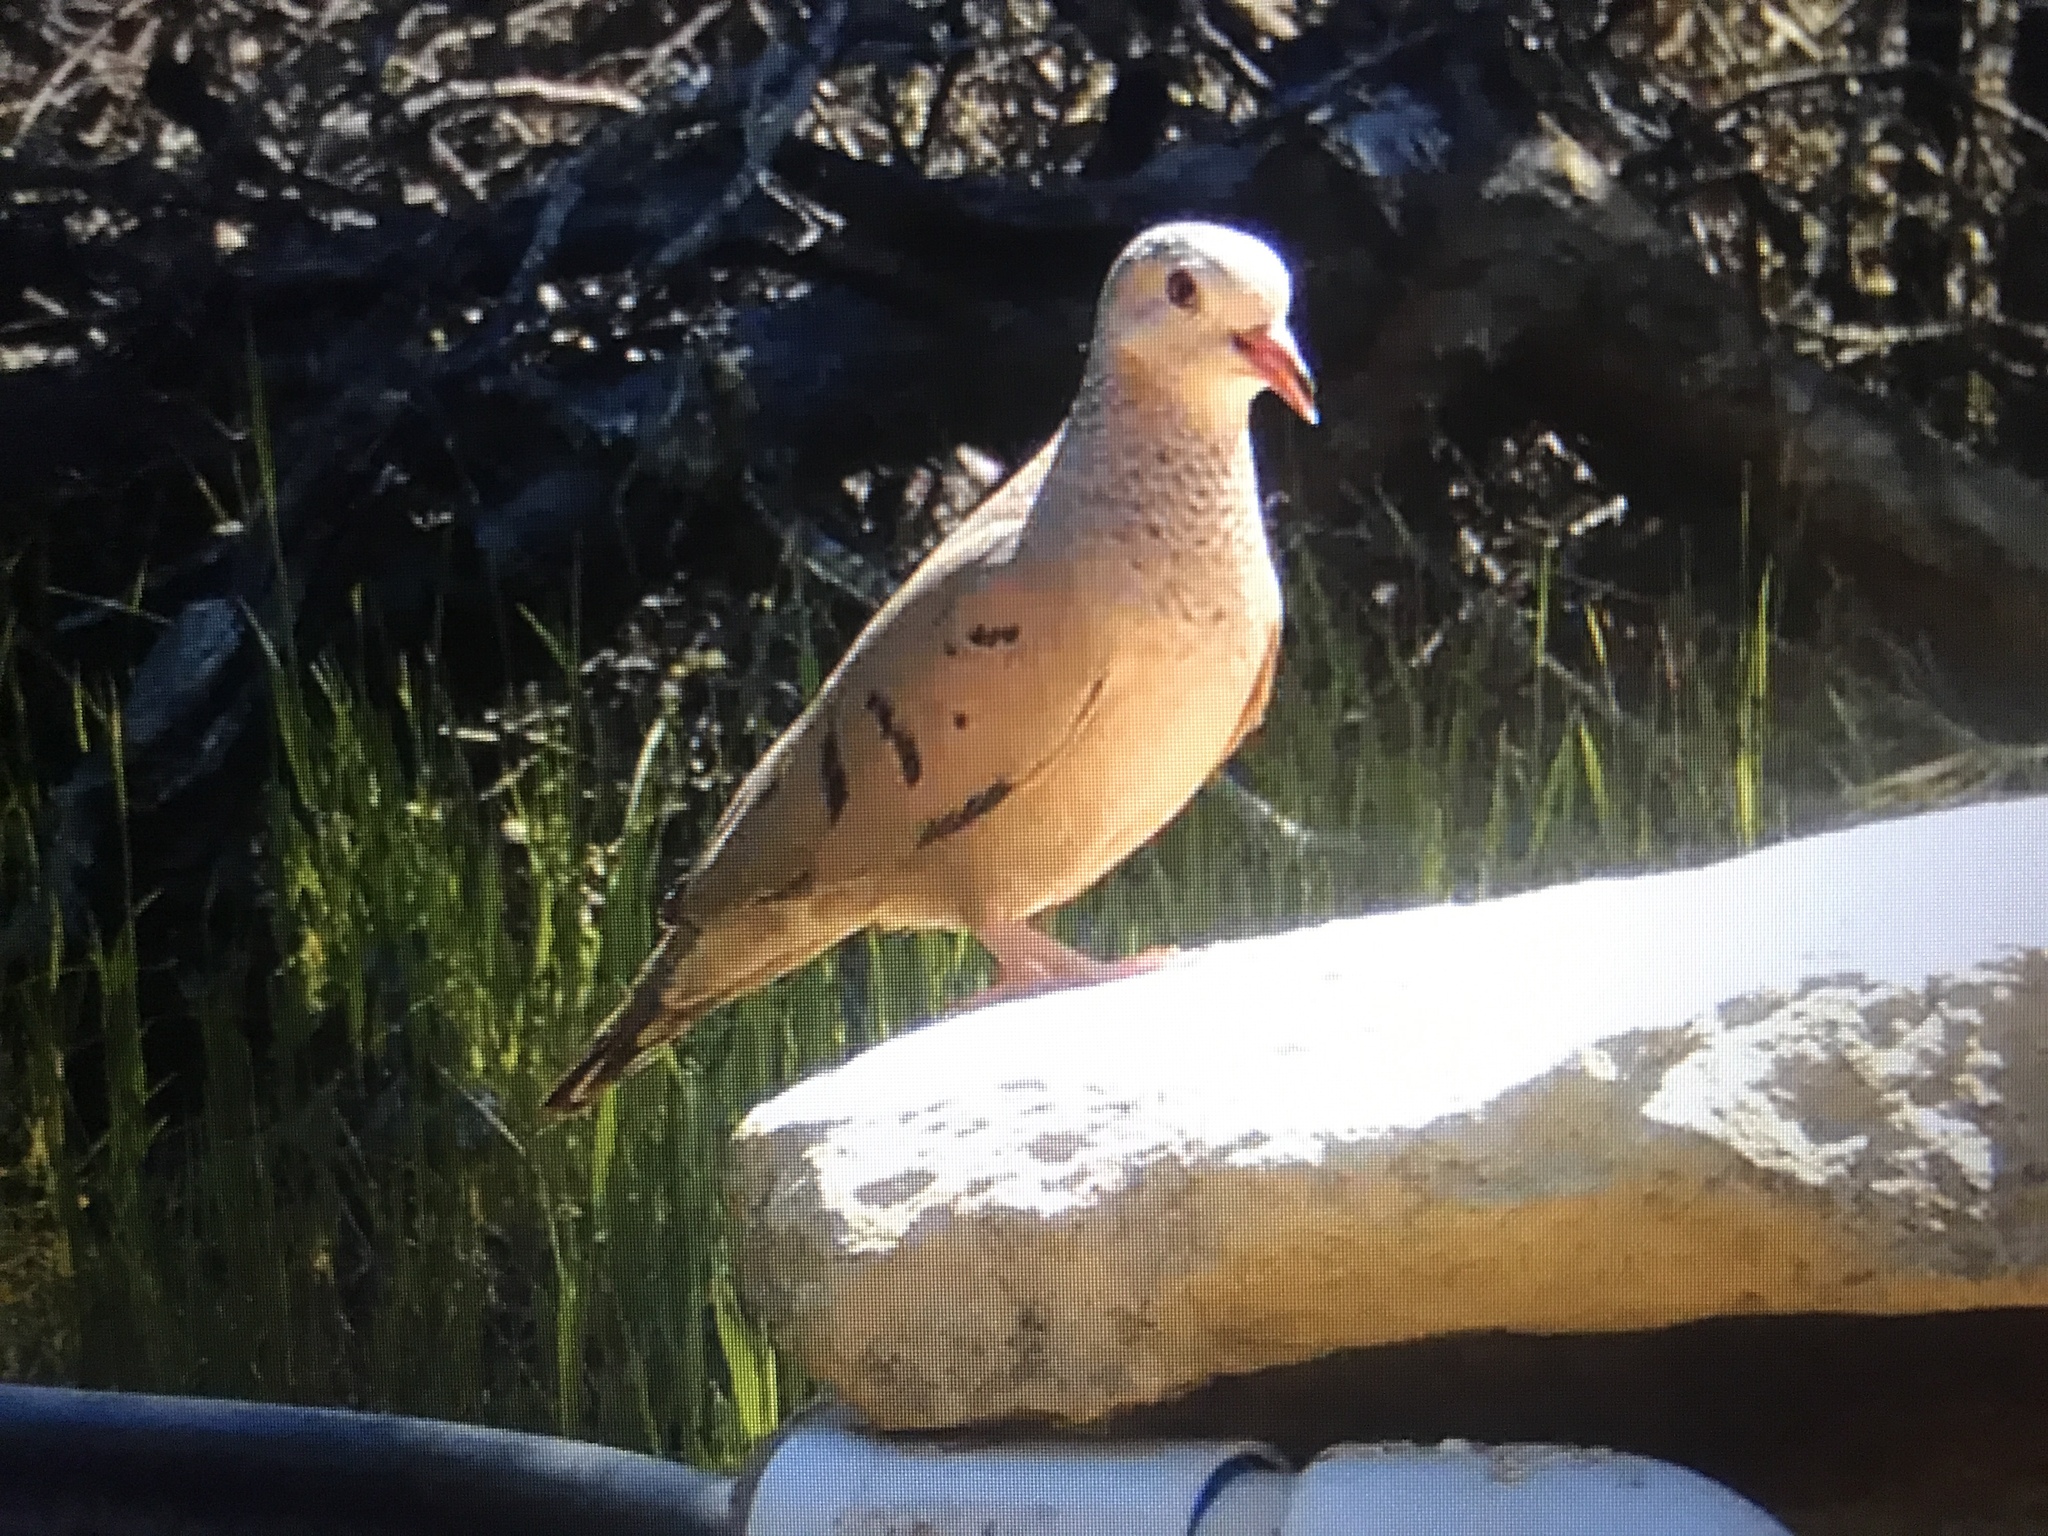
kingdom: Animalia
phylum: Chordata
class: Aves
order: Columbiformes
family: Columbidae
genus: Columbina
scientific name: Columbina passerina
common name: Common ground-dove
